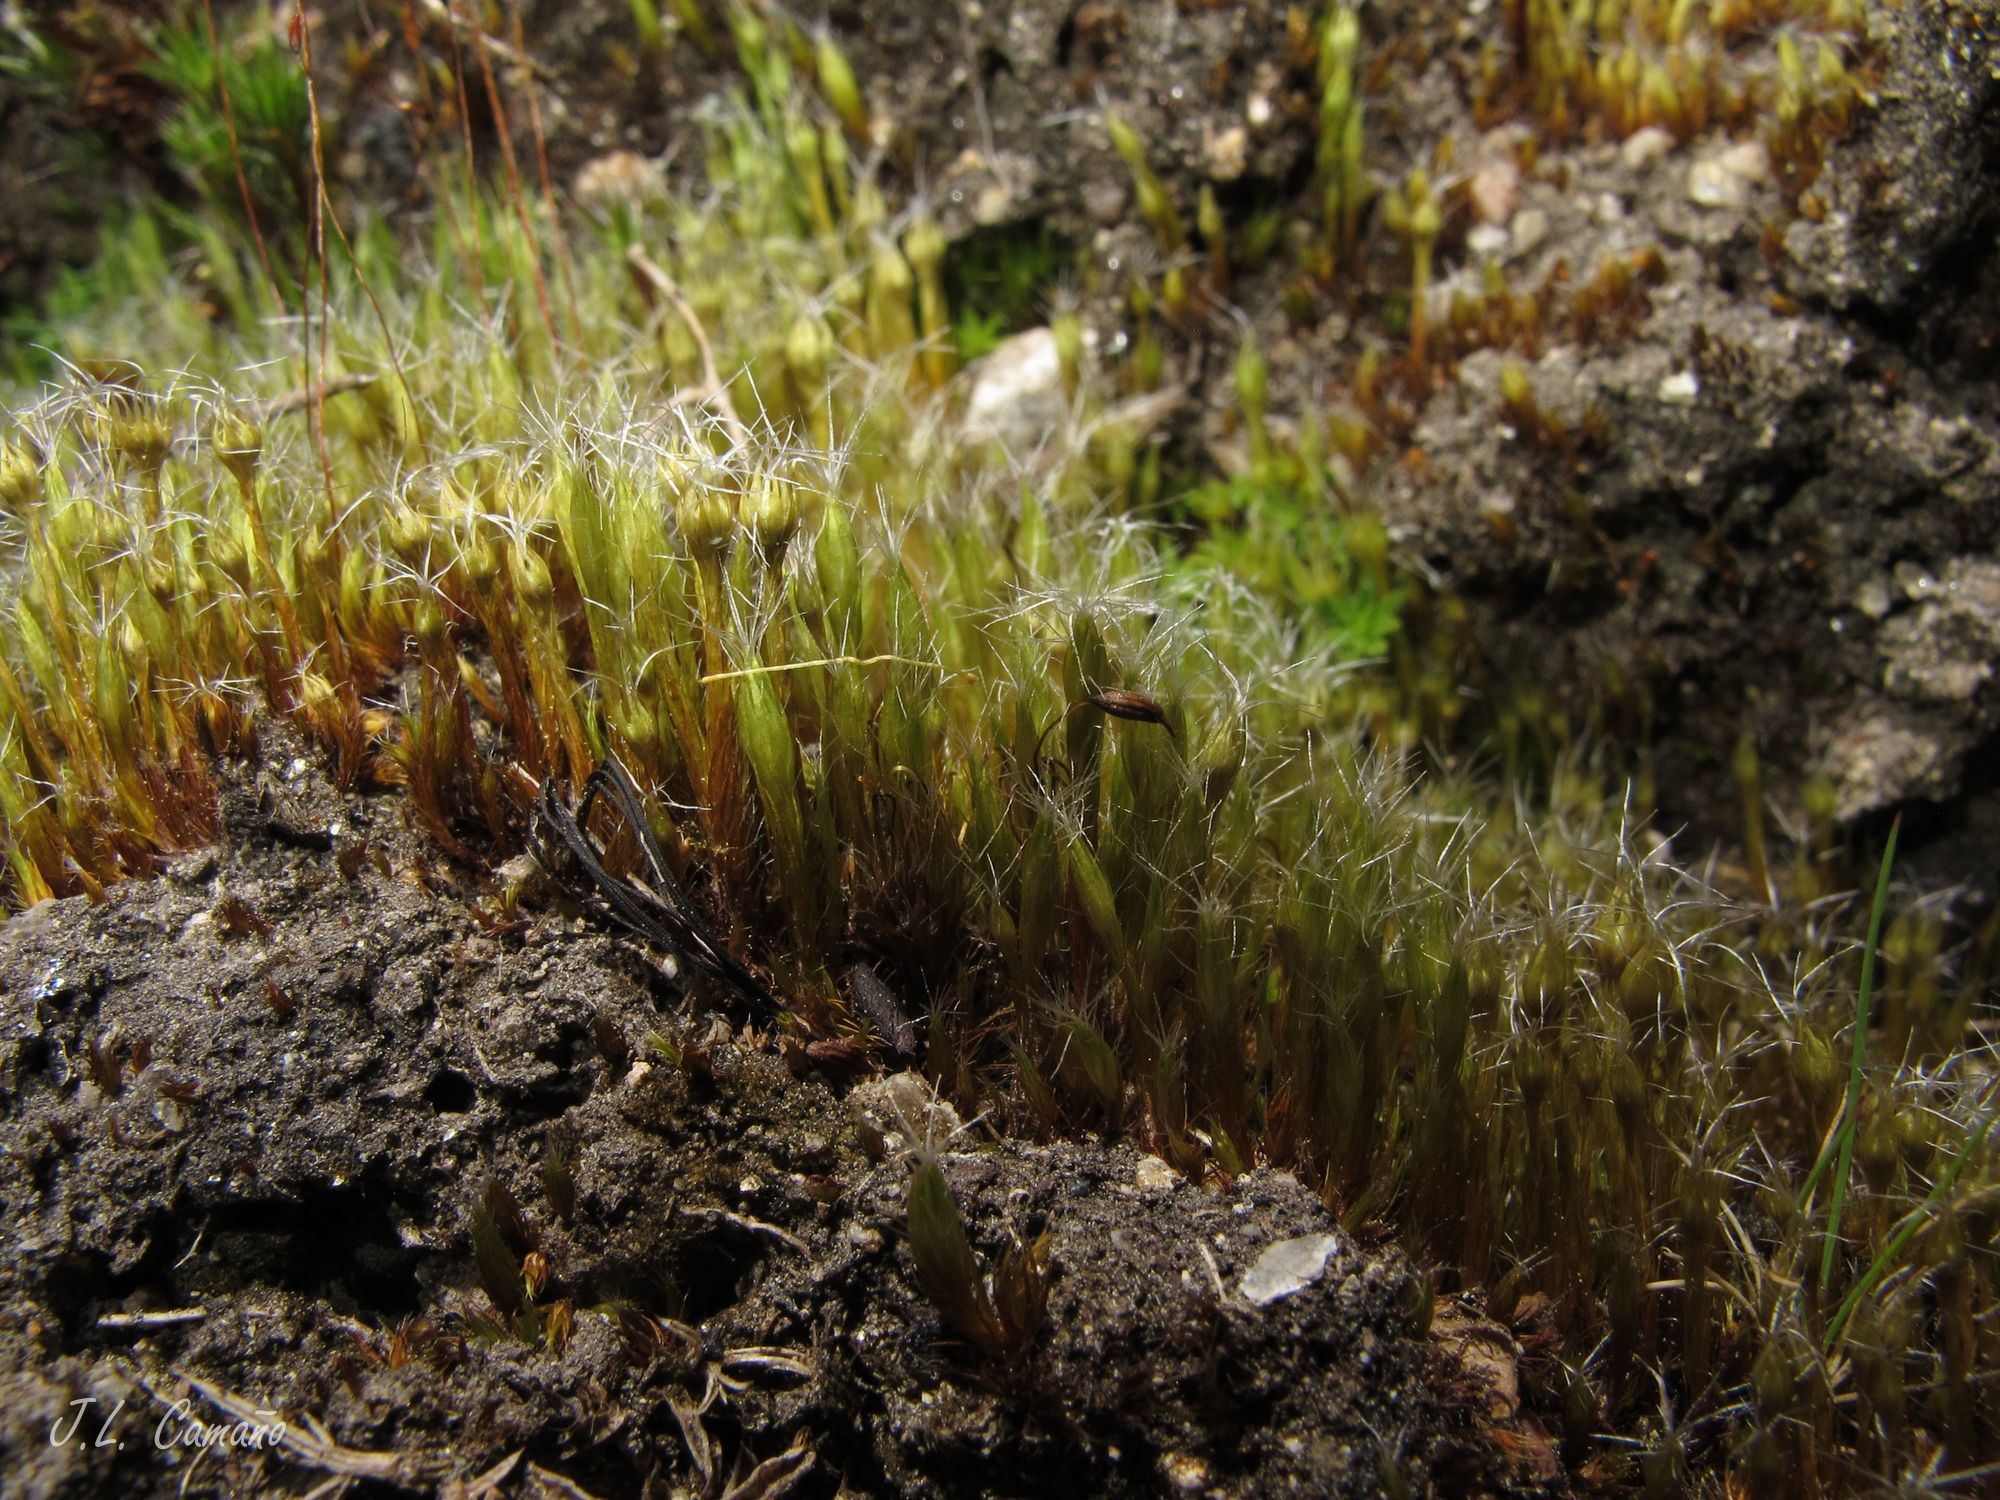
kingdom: Plantae
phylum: Bryophyta
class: Bryopsida
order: Dicranales
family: Leucobryaceae
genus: Campylopus
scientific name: Campylopus introflexus
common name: Heath star moss
